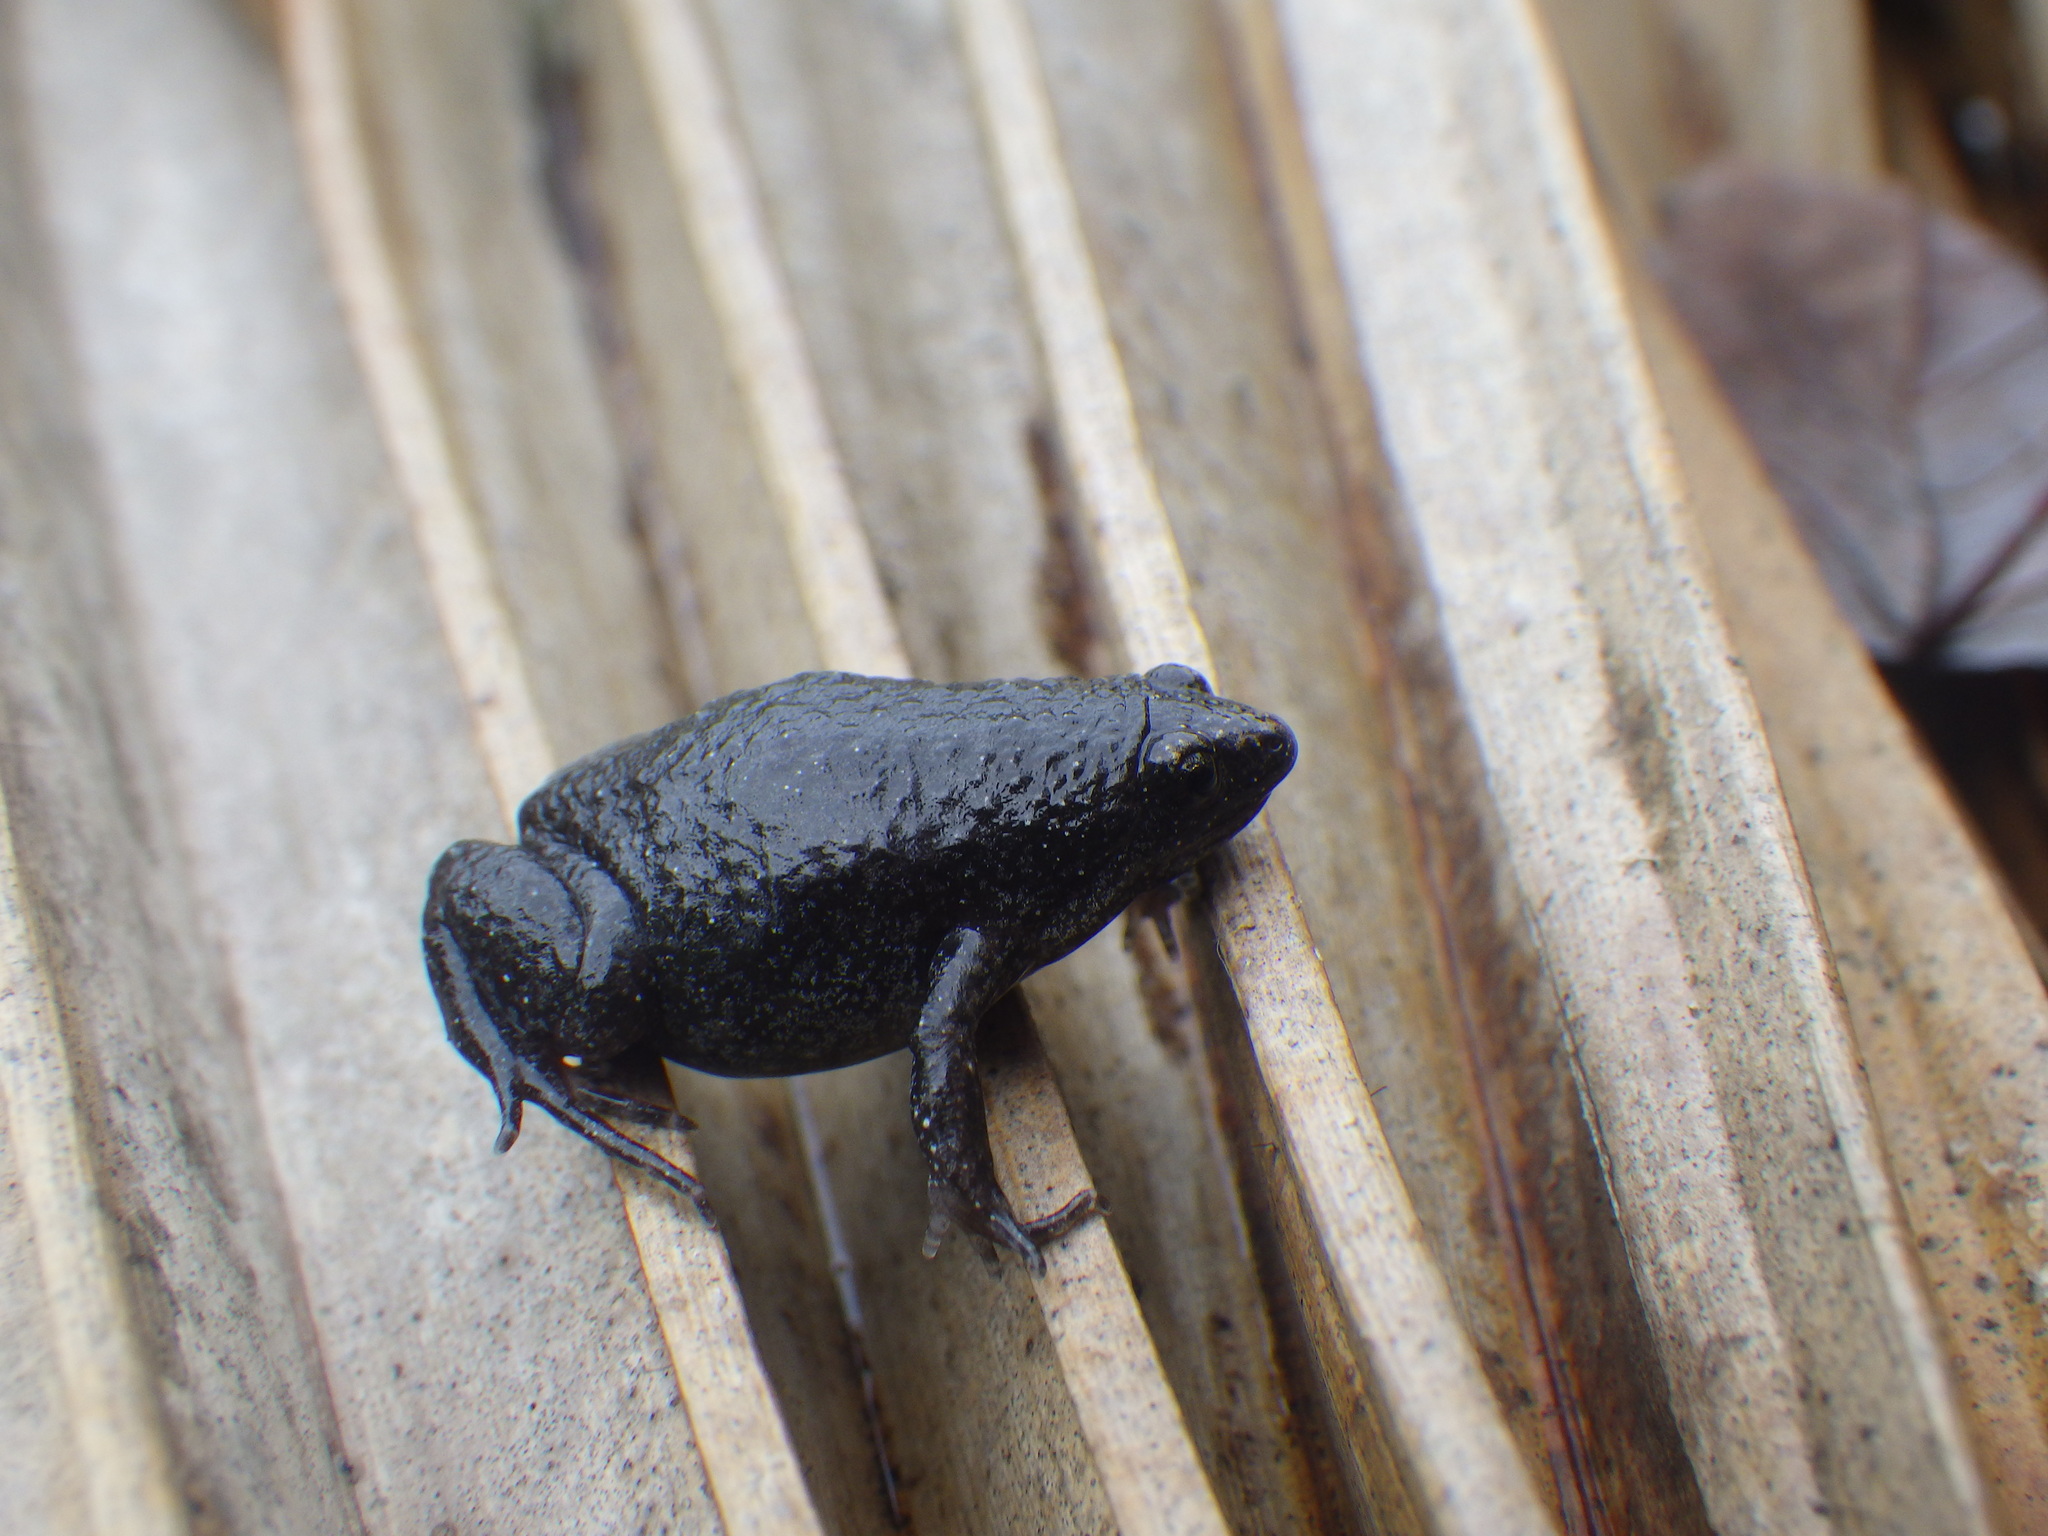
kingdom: Animalia
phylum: Chordata
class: Amphibia
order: Anura
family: Microhylidae
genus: Gastrophryne
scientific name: Gastrophryne carolinensis
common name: Eastern narrowmouth toad
